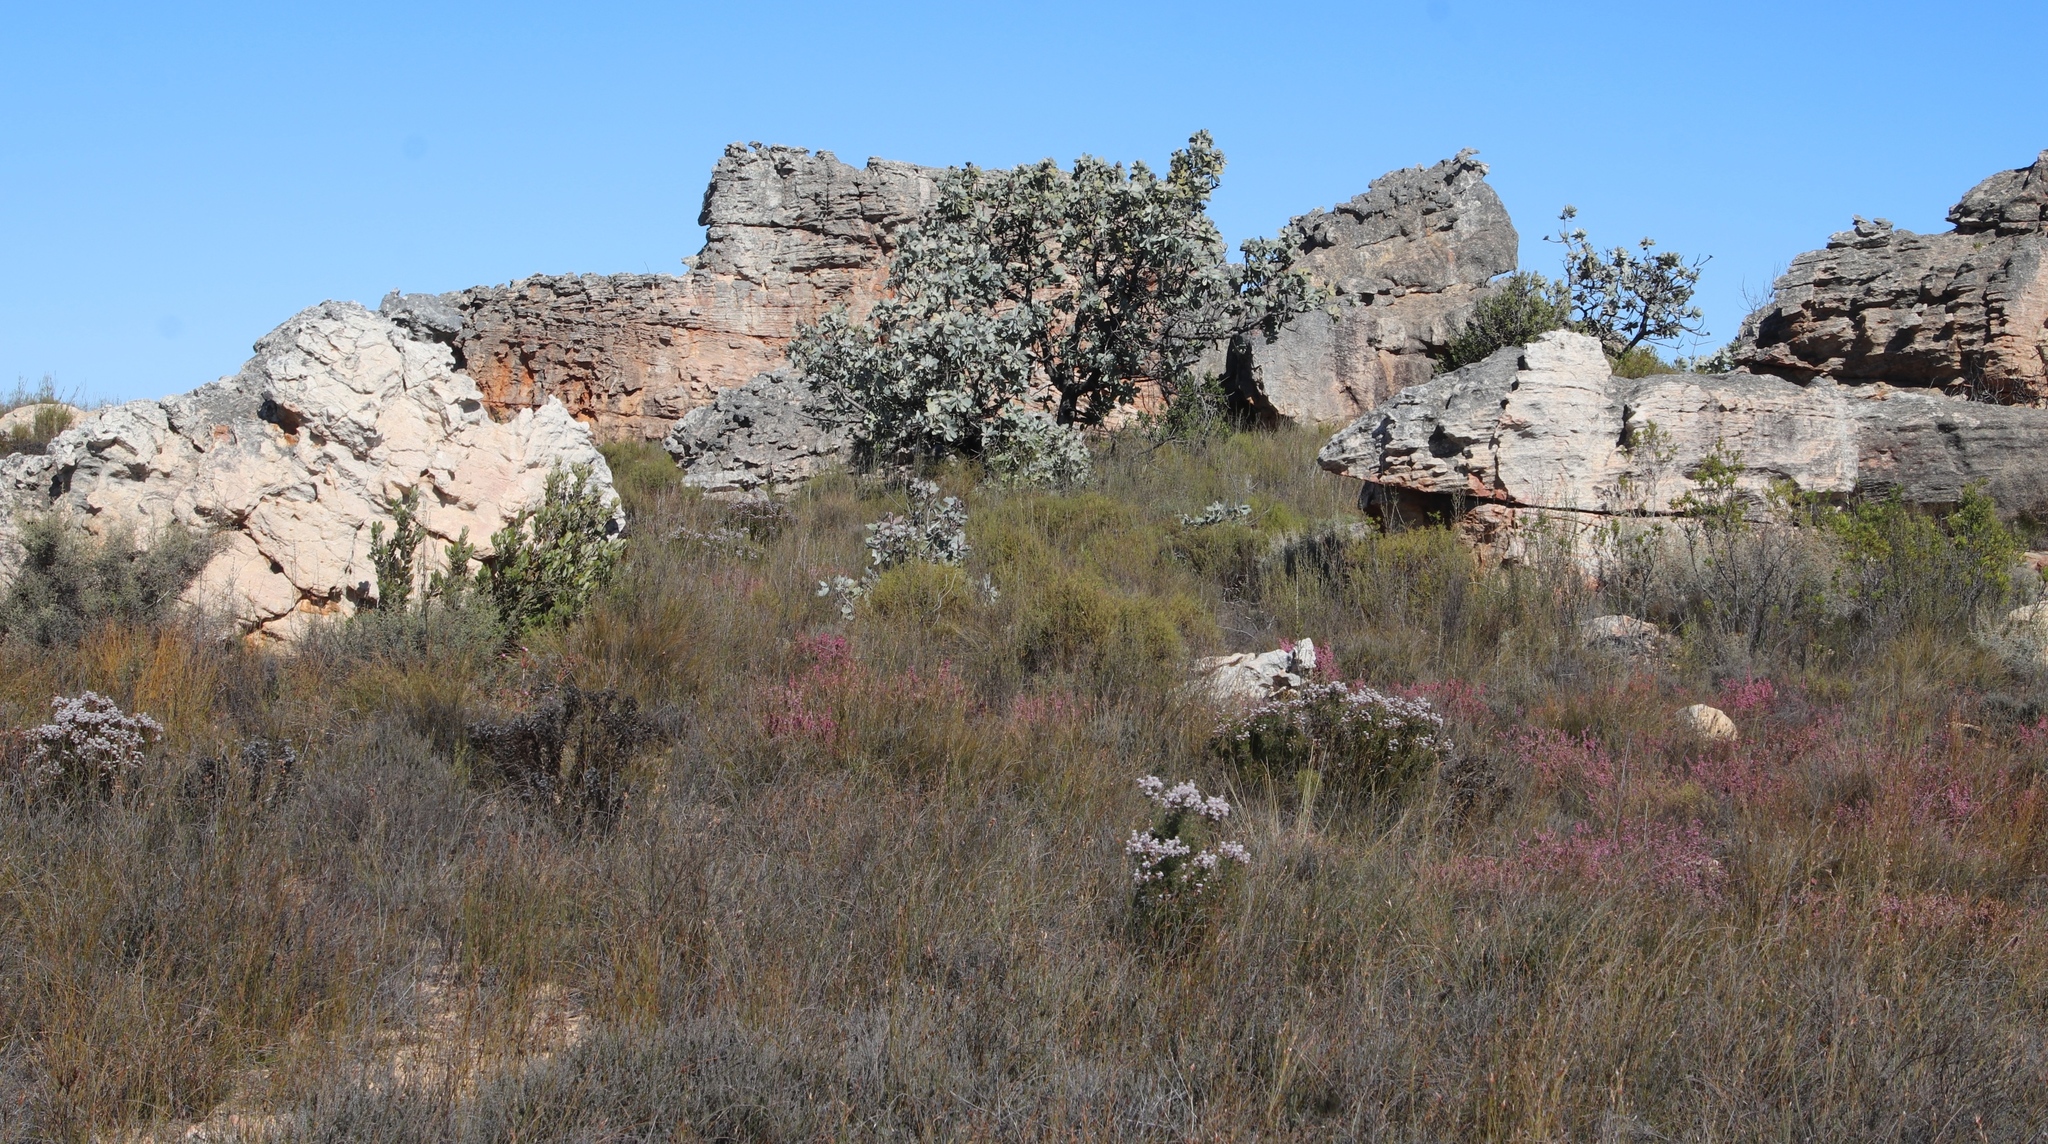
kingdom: Plantae
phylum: Tracheophyta
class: Magnoliopsida
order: Proteales
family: Proteaceae
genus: Protea
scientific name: Protea nitida
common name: Tree protea
